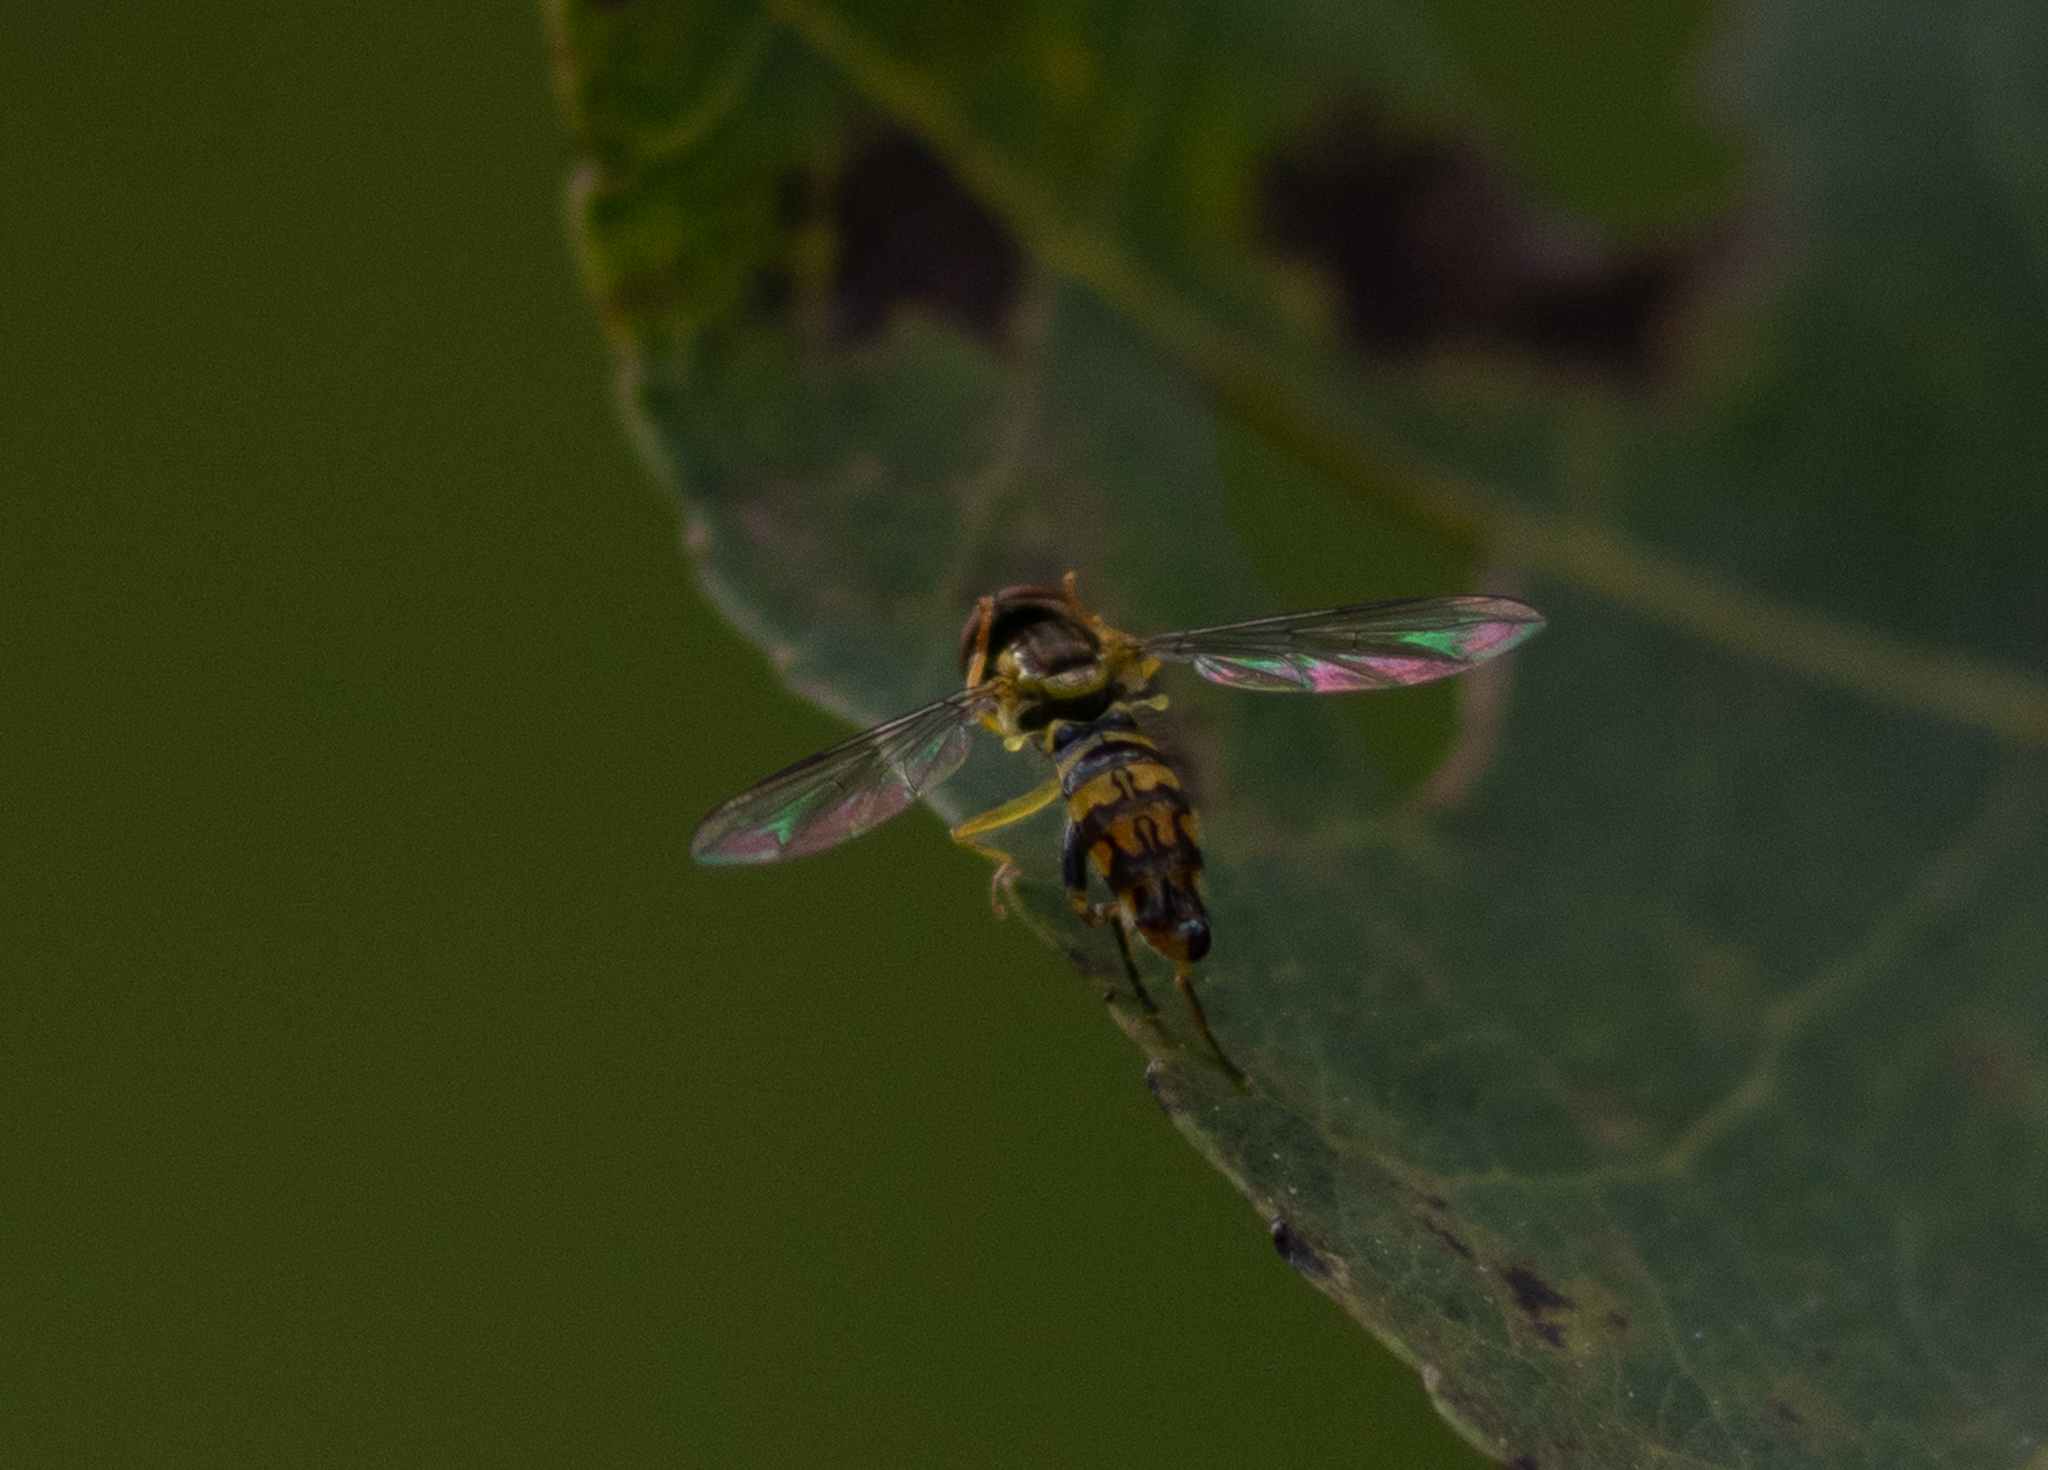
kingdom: Animalia
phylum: Arthropoda
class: Insecta
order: Diptera
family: Syrphidae
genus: Toxomerus
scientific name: Toxomerus geminatus
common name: Eastern calligrapher
